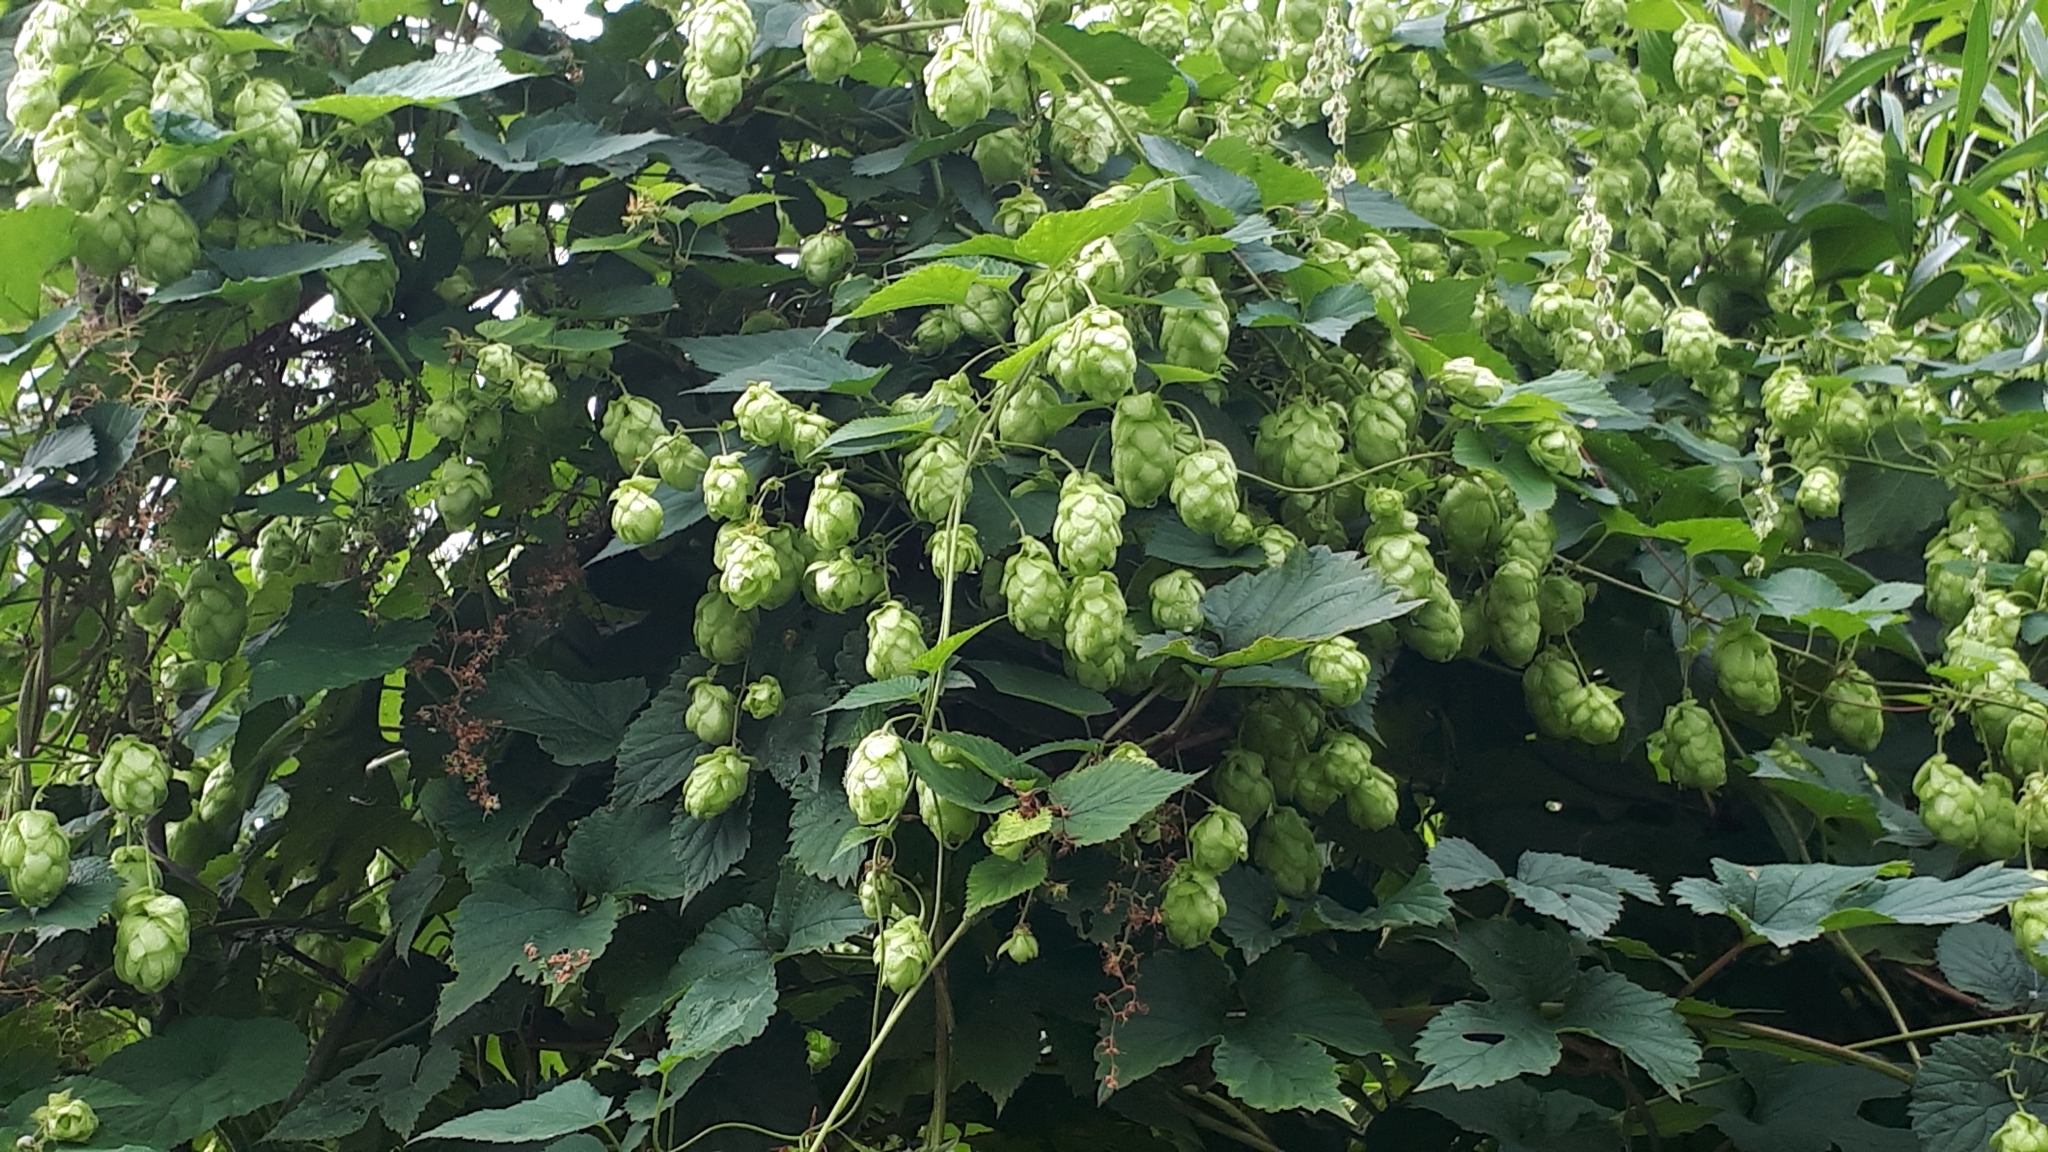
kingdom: Plantae
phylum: Tracheophyta
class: Magnoliopsida
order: Rosales
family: Cannabaceae
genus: Humulus
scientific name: Humulus lupulus
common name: Hop
